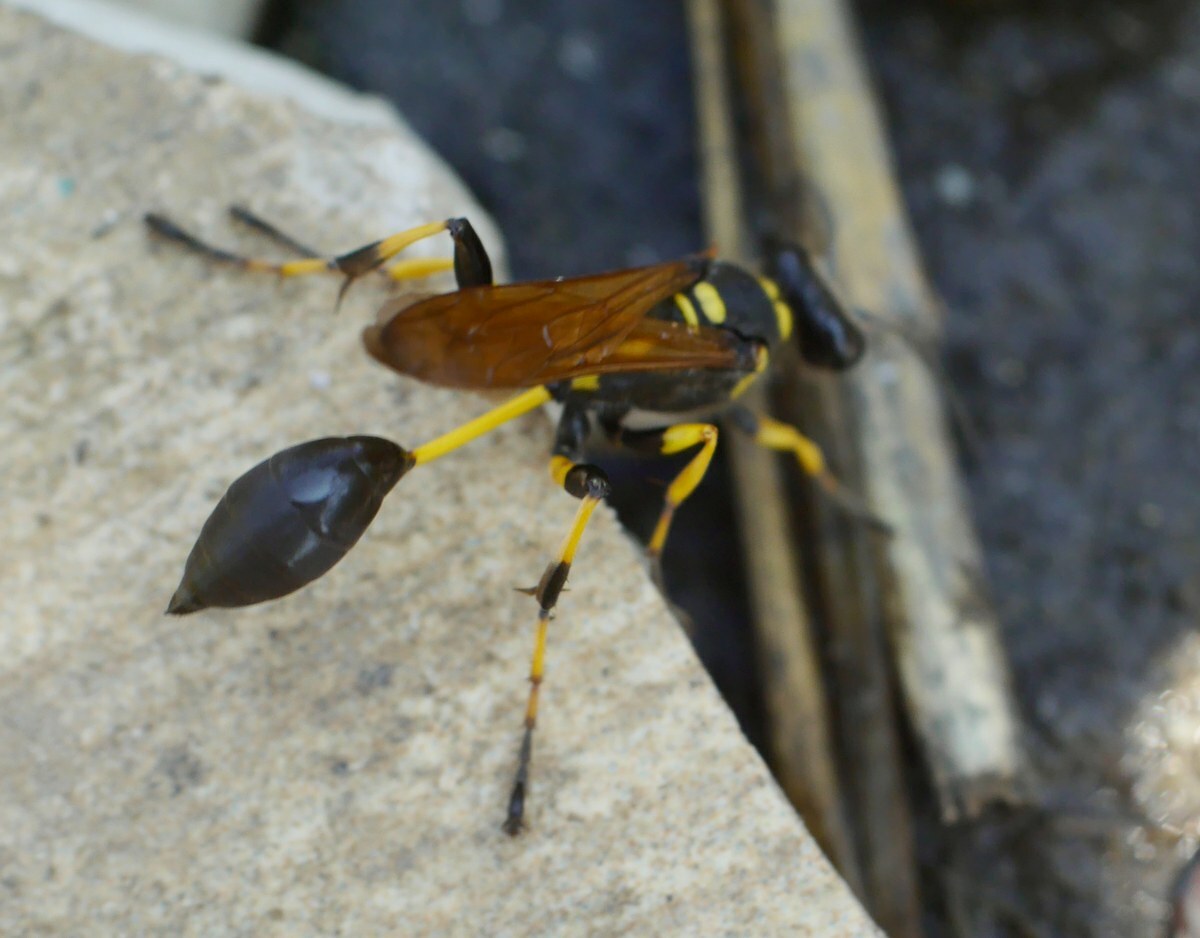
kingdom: Animalia
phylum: Arthropoda
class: Insecta
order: Hymenoptera
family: Sphecidae
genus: Sceliphron
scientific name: Sceliphron madraspatanum
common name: Mud dauber
